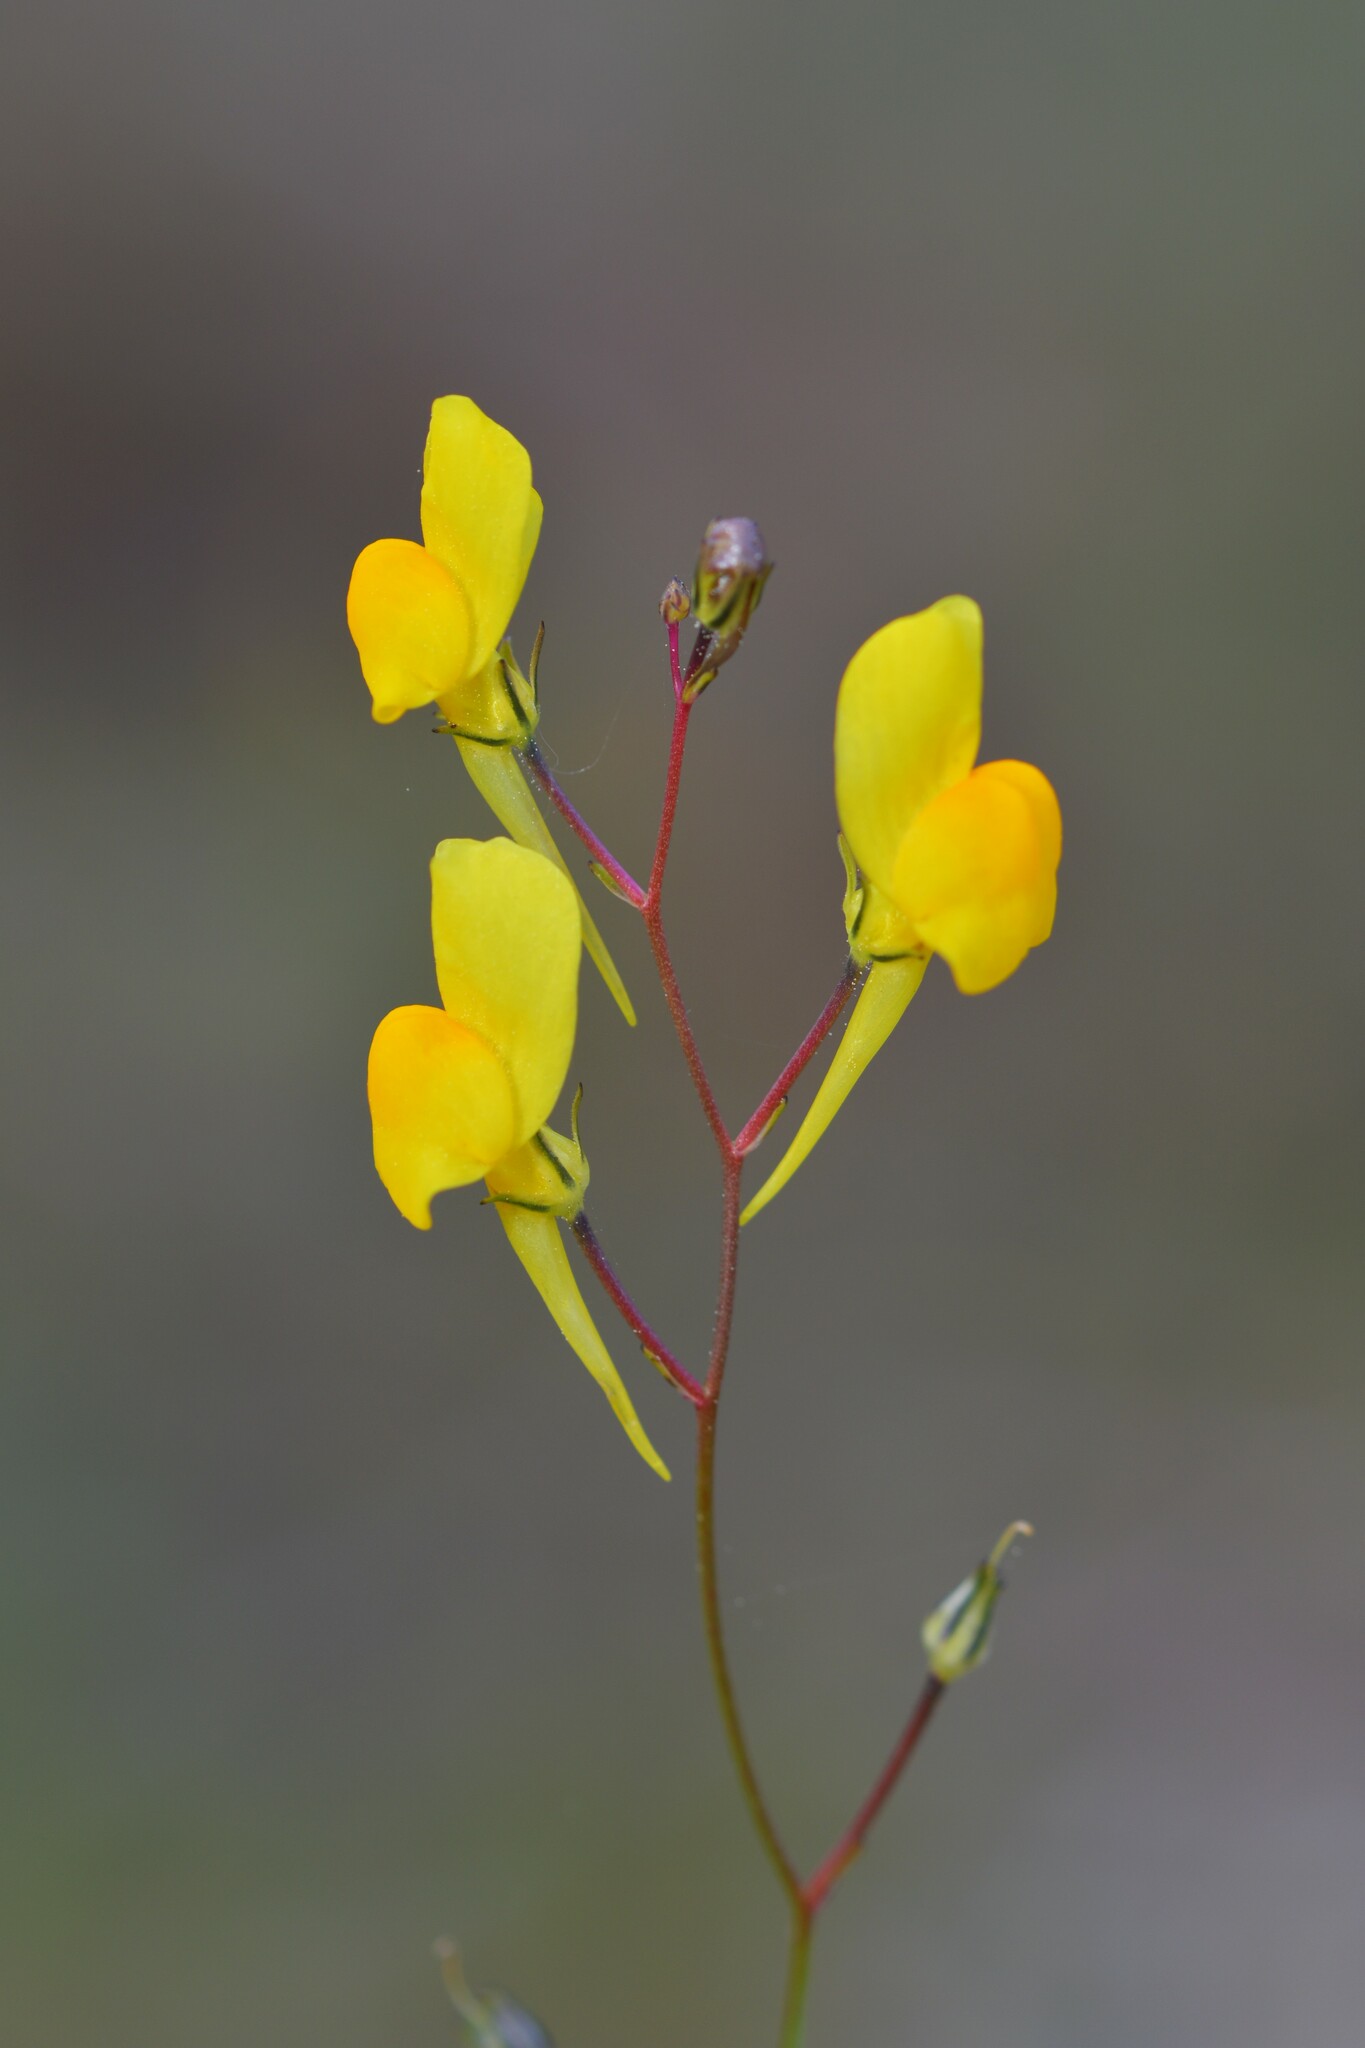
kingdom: Plantae
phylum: Tracheophyta
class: Magnoliopsida
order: Lamiales
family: Plantaginaceae
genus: Linaria
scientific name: Linaria spartea
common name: Ballast toadflax
